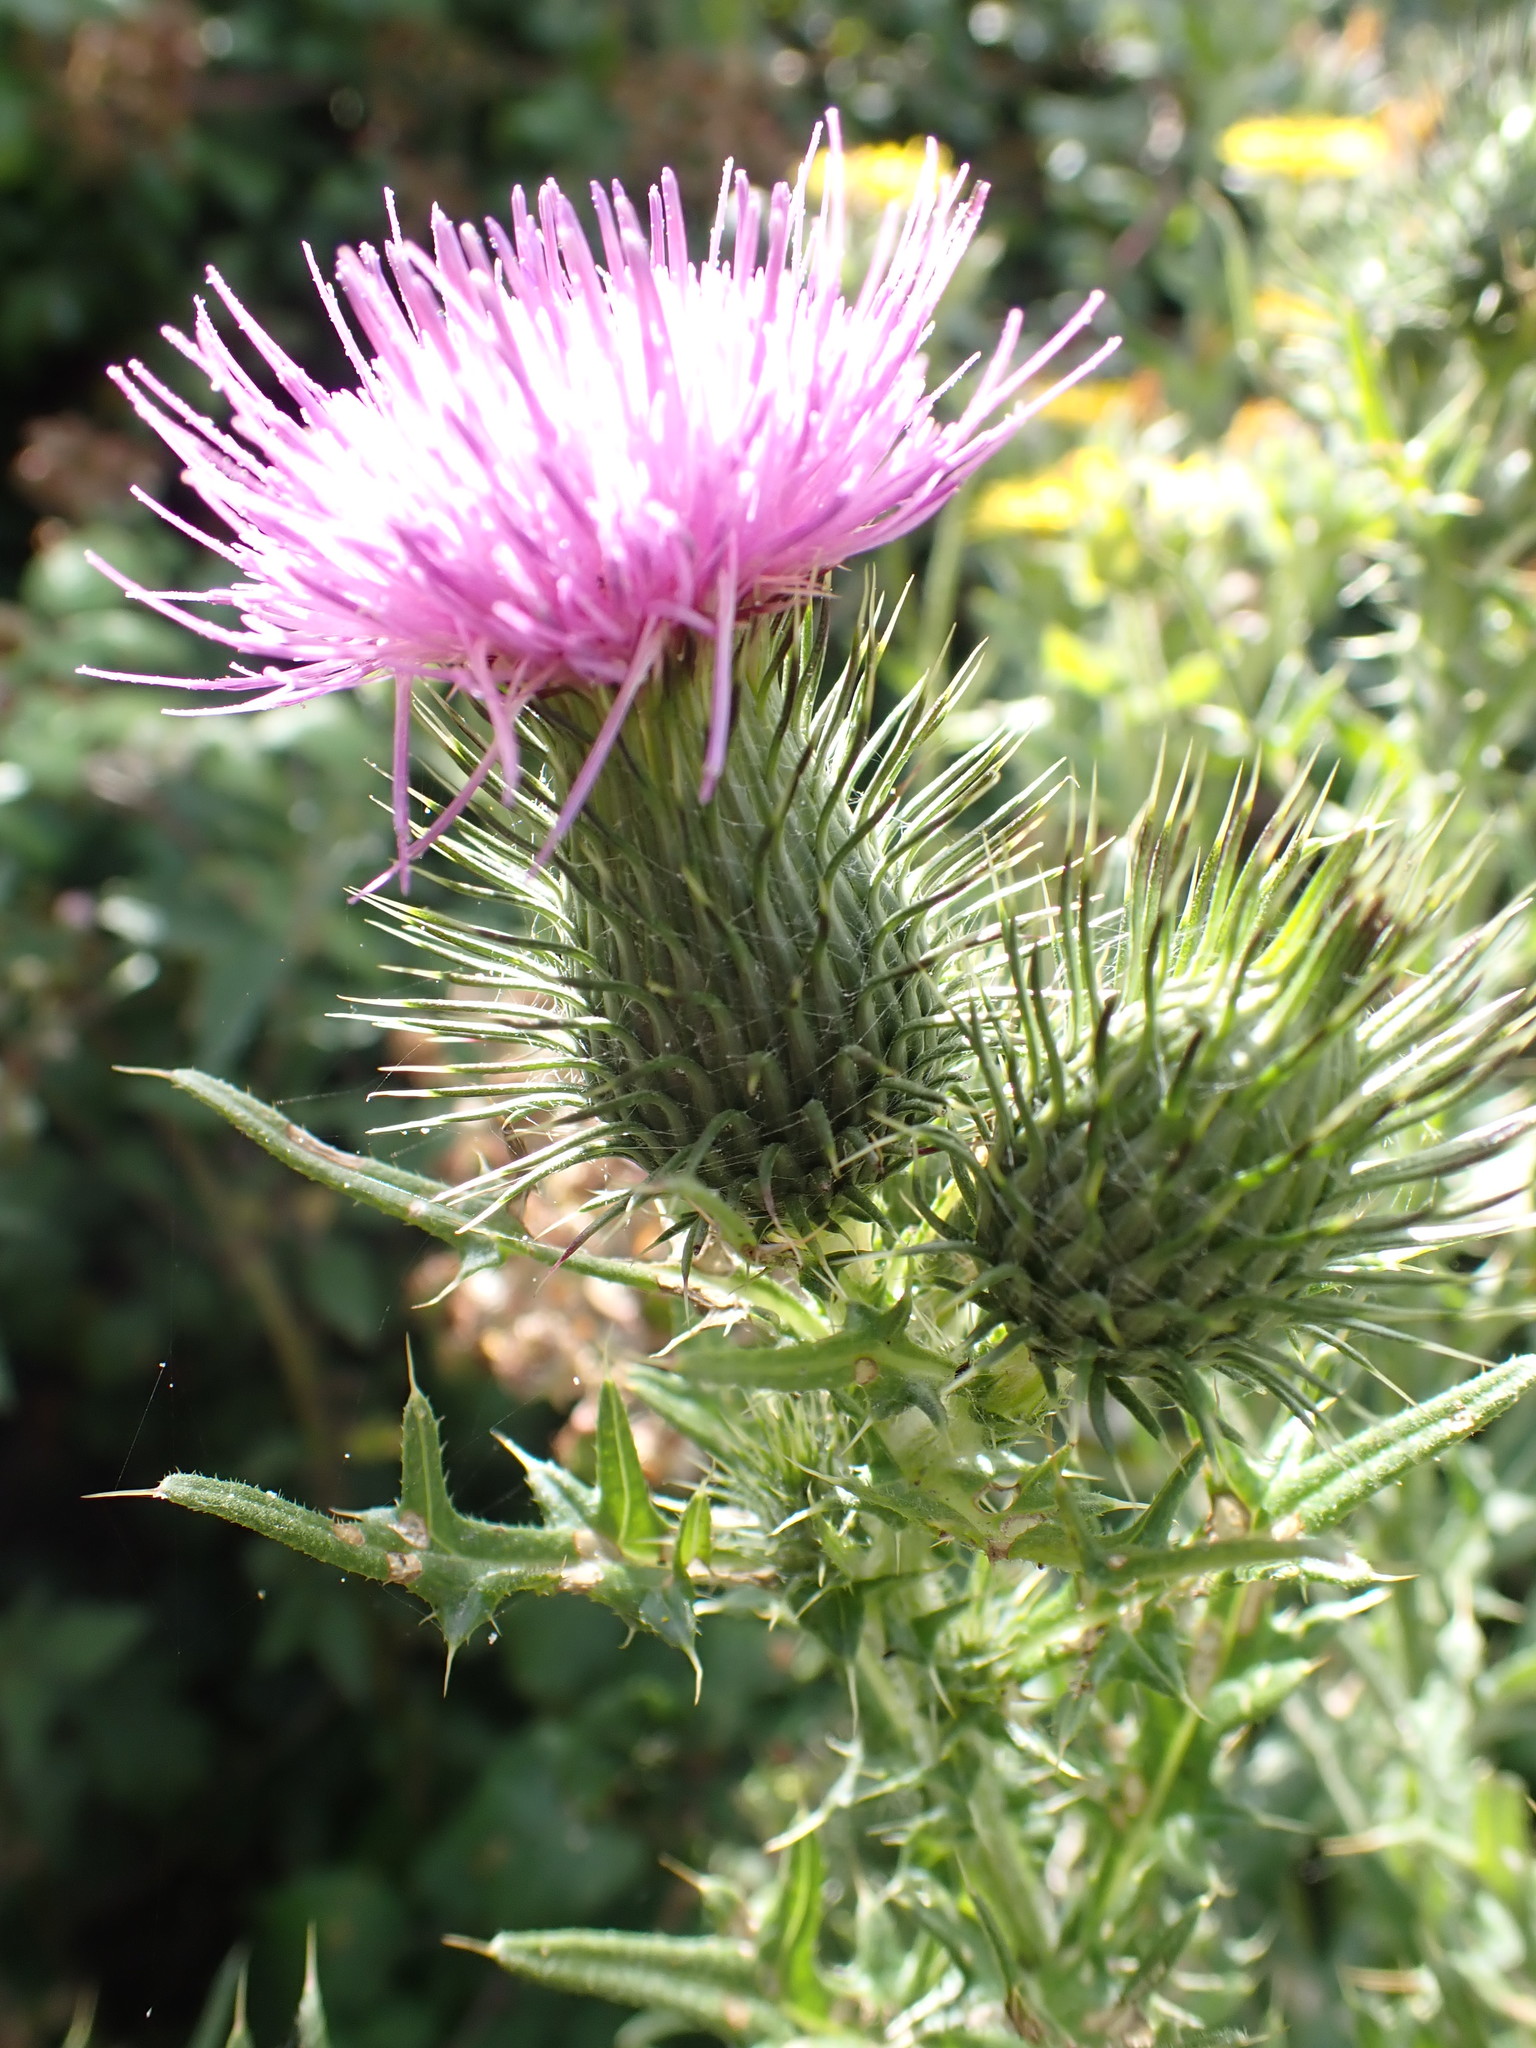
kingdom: Plantae
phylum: Tracheophyta
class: Magnoliopsida
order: Asterales
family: Asteraceae
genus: Cirsium
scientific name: Cirsium vulgare
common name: Bull thistle
